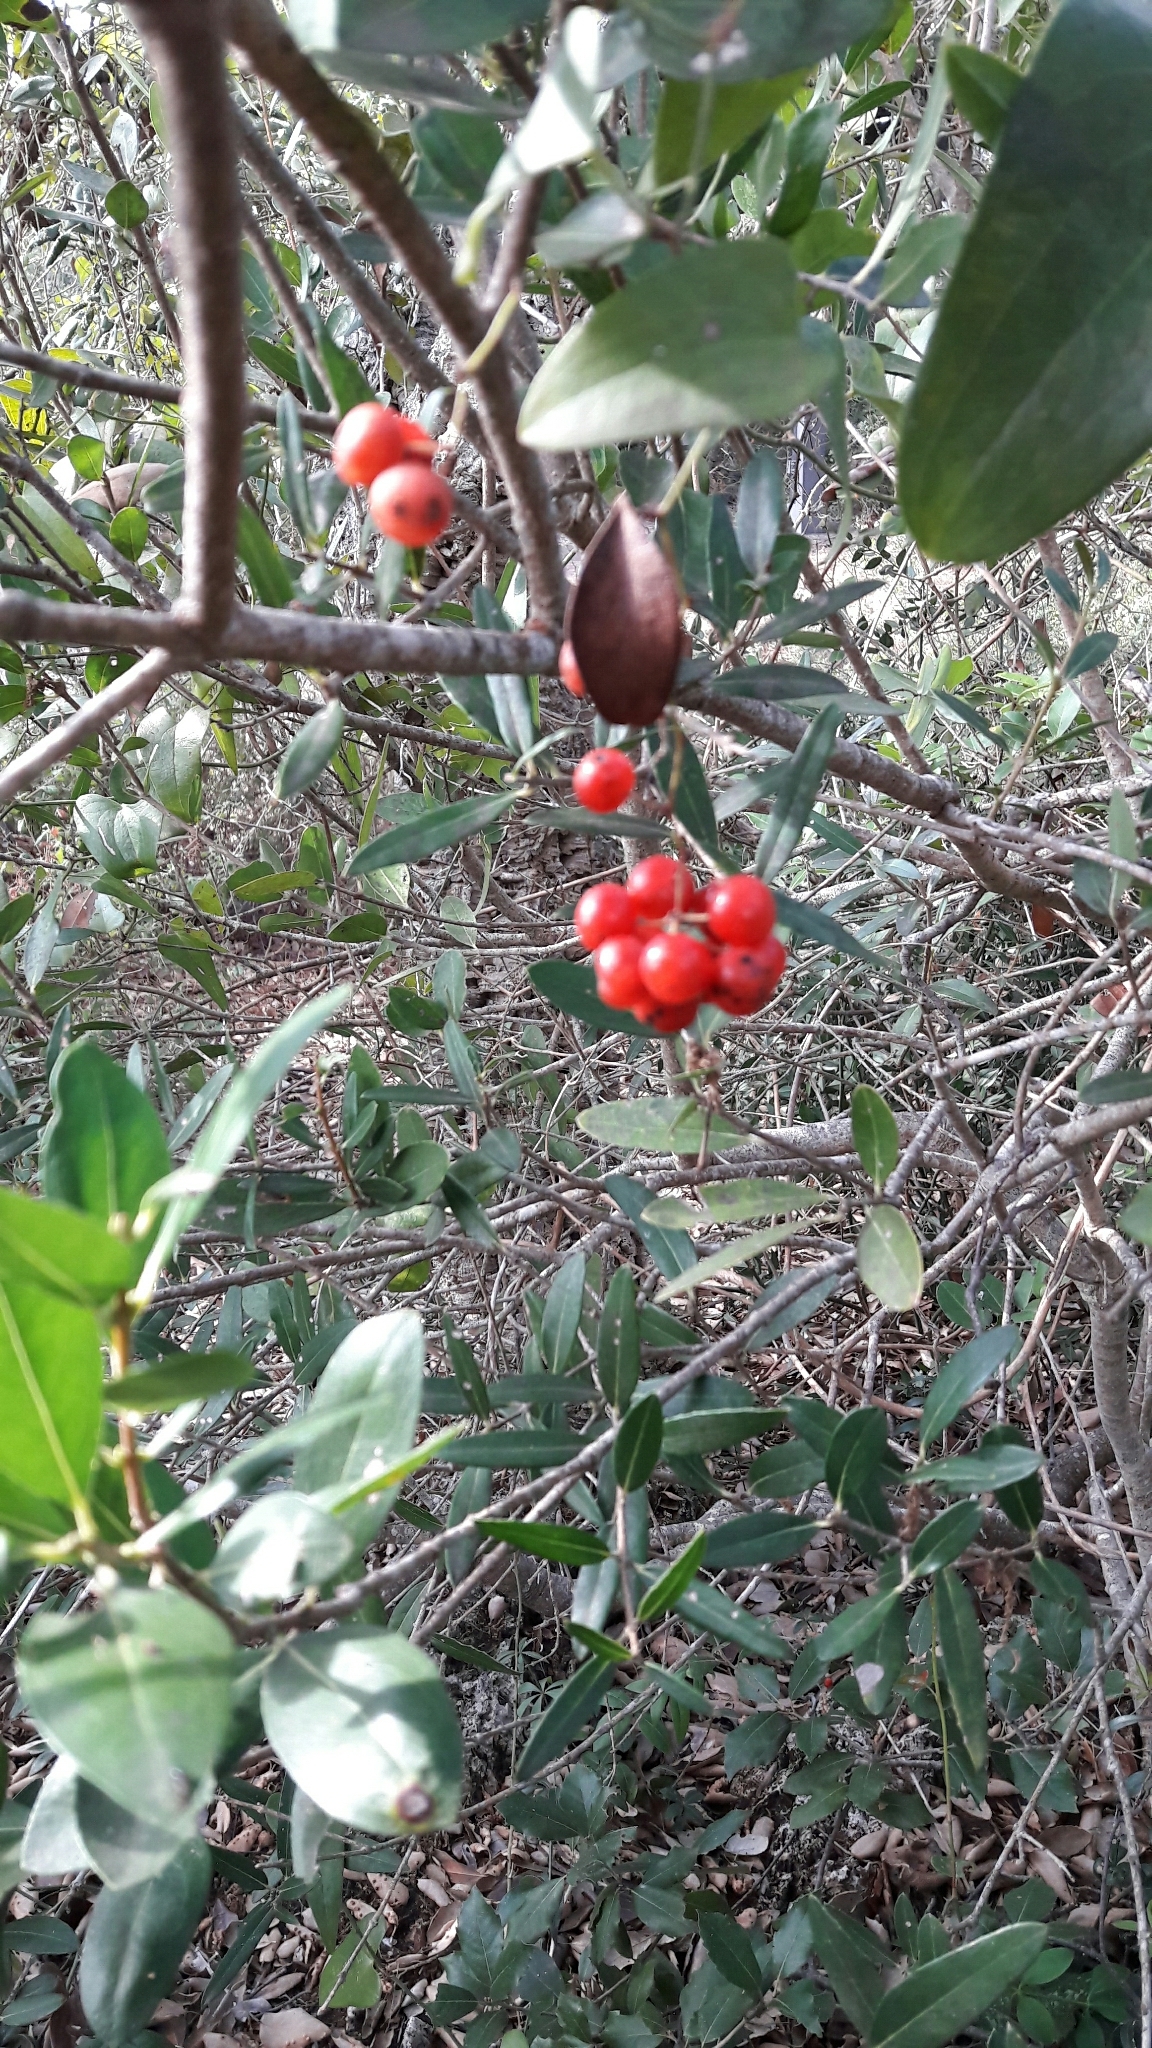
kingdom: Plantae
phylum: Tracheophyta
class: Liliopsida
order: Liliales
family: Smilacaceae
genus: Smilax
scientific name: Smilax aspera
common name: Common smilax
